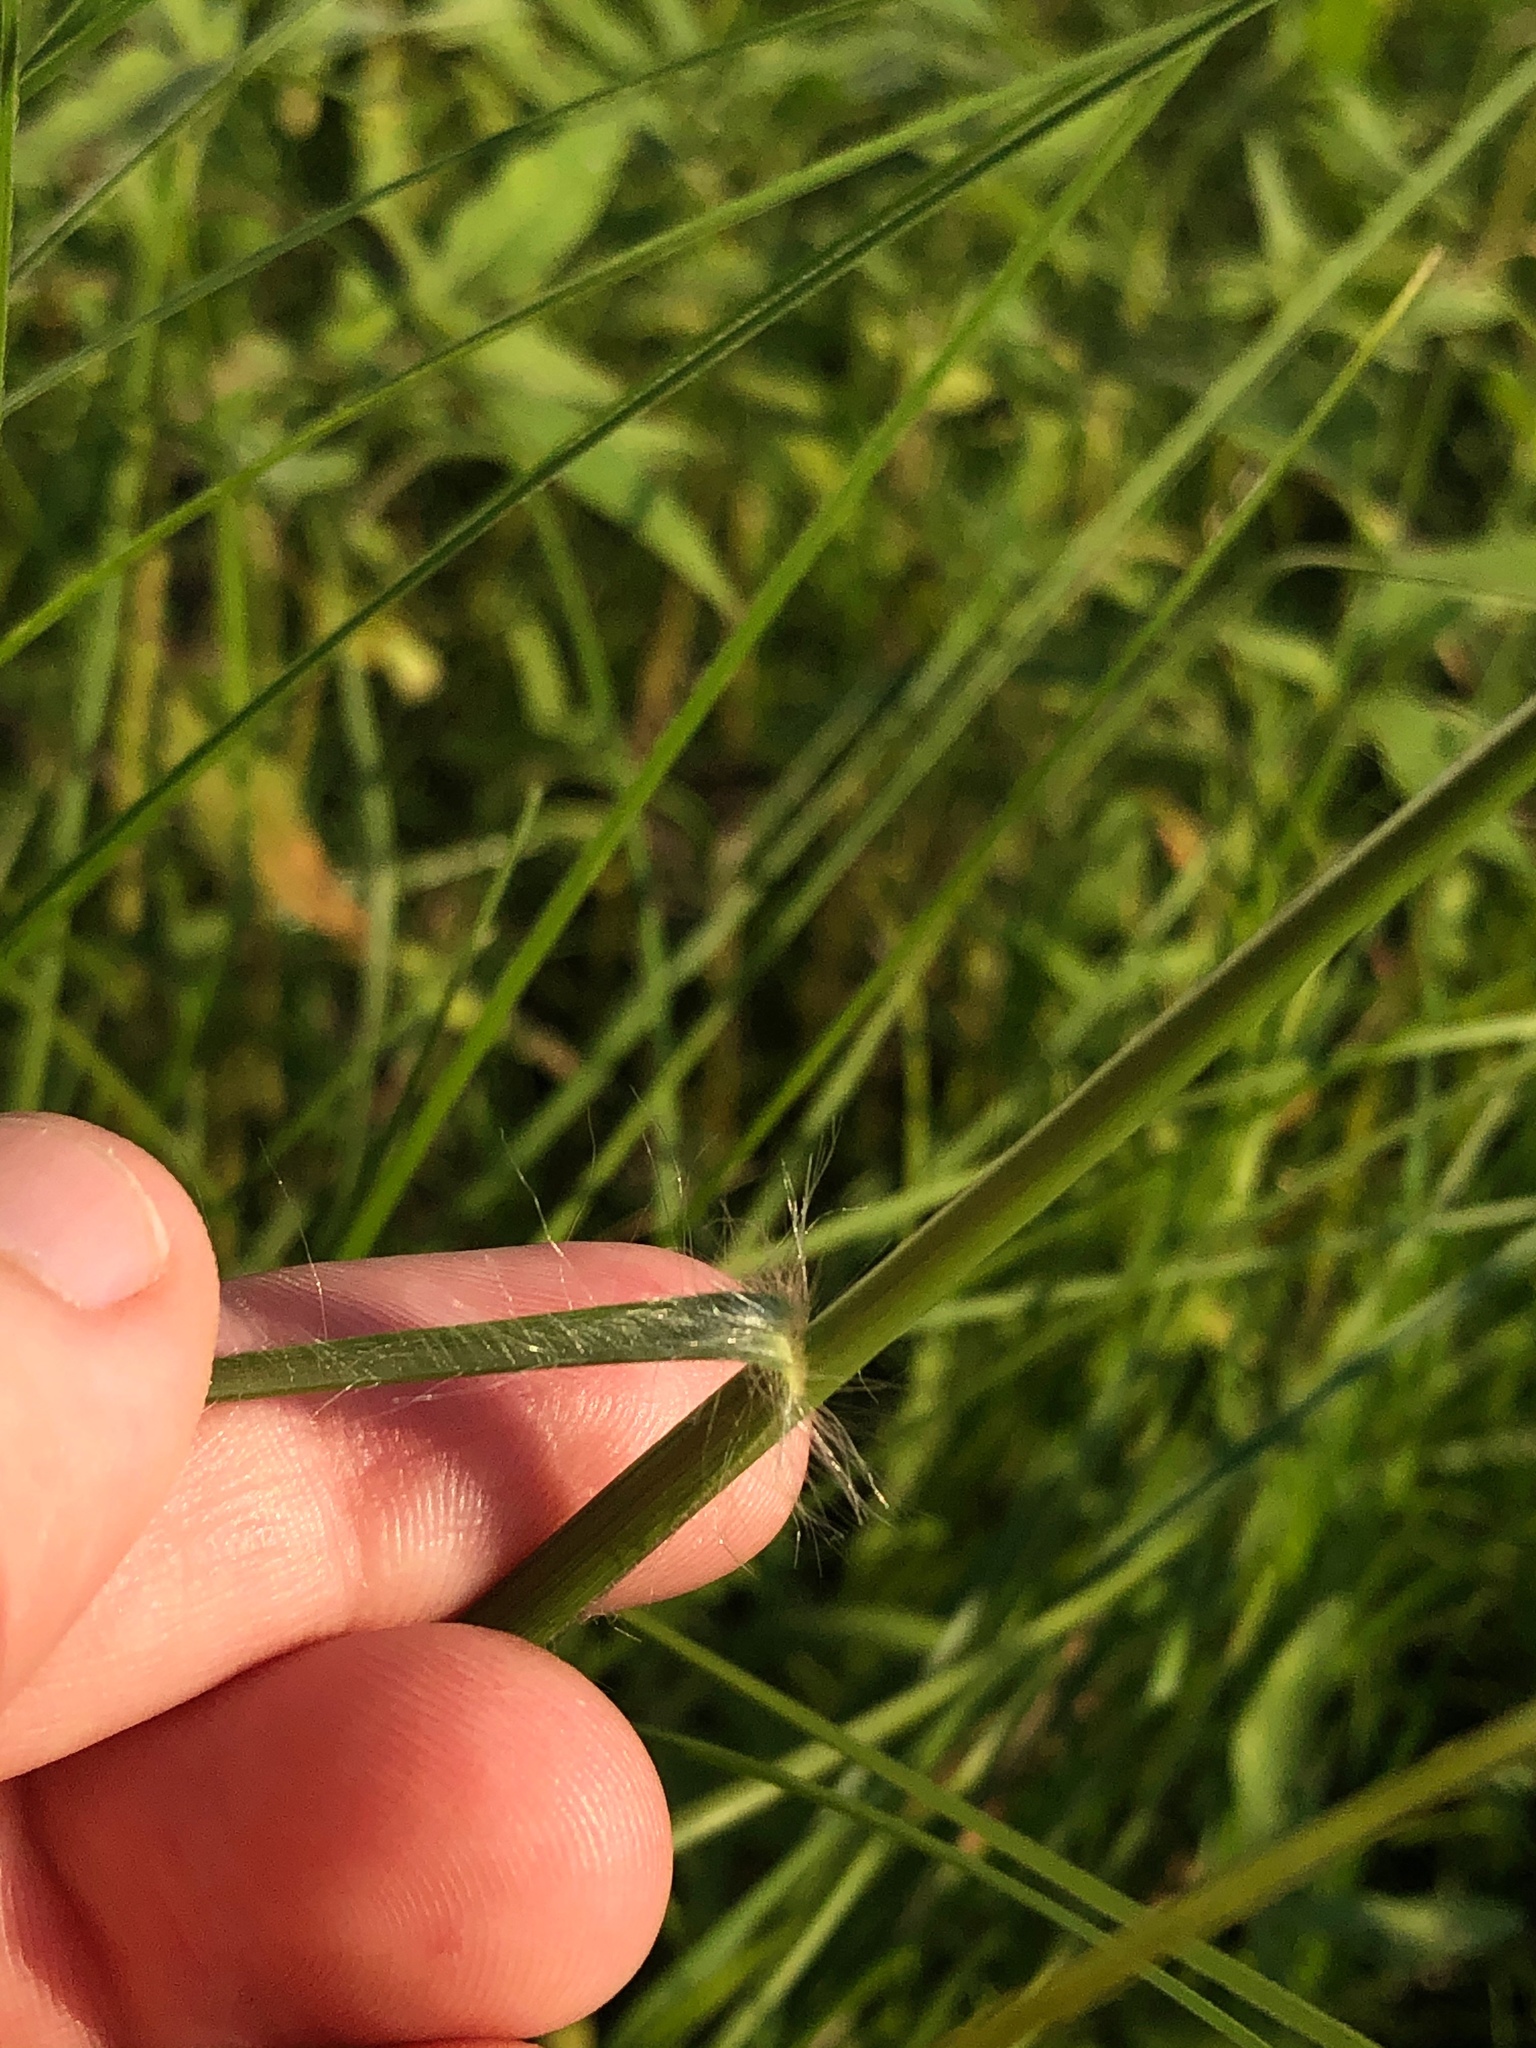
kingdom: Plantae
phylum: Tracheophyta
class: Liliopsida
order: Poales
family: Poaceae
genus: Elionurus
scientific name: Elionurus tripsacoides
